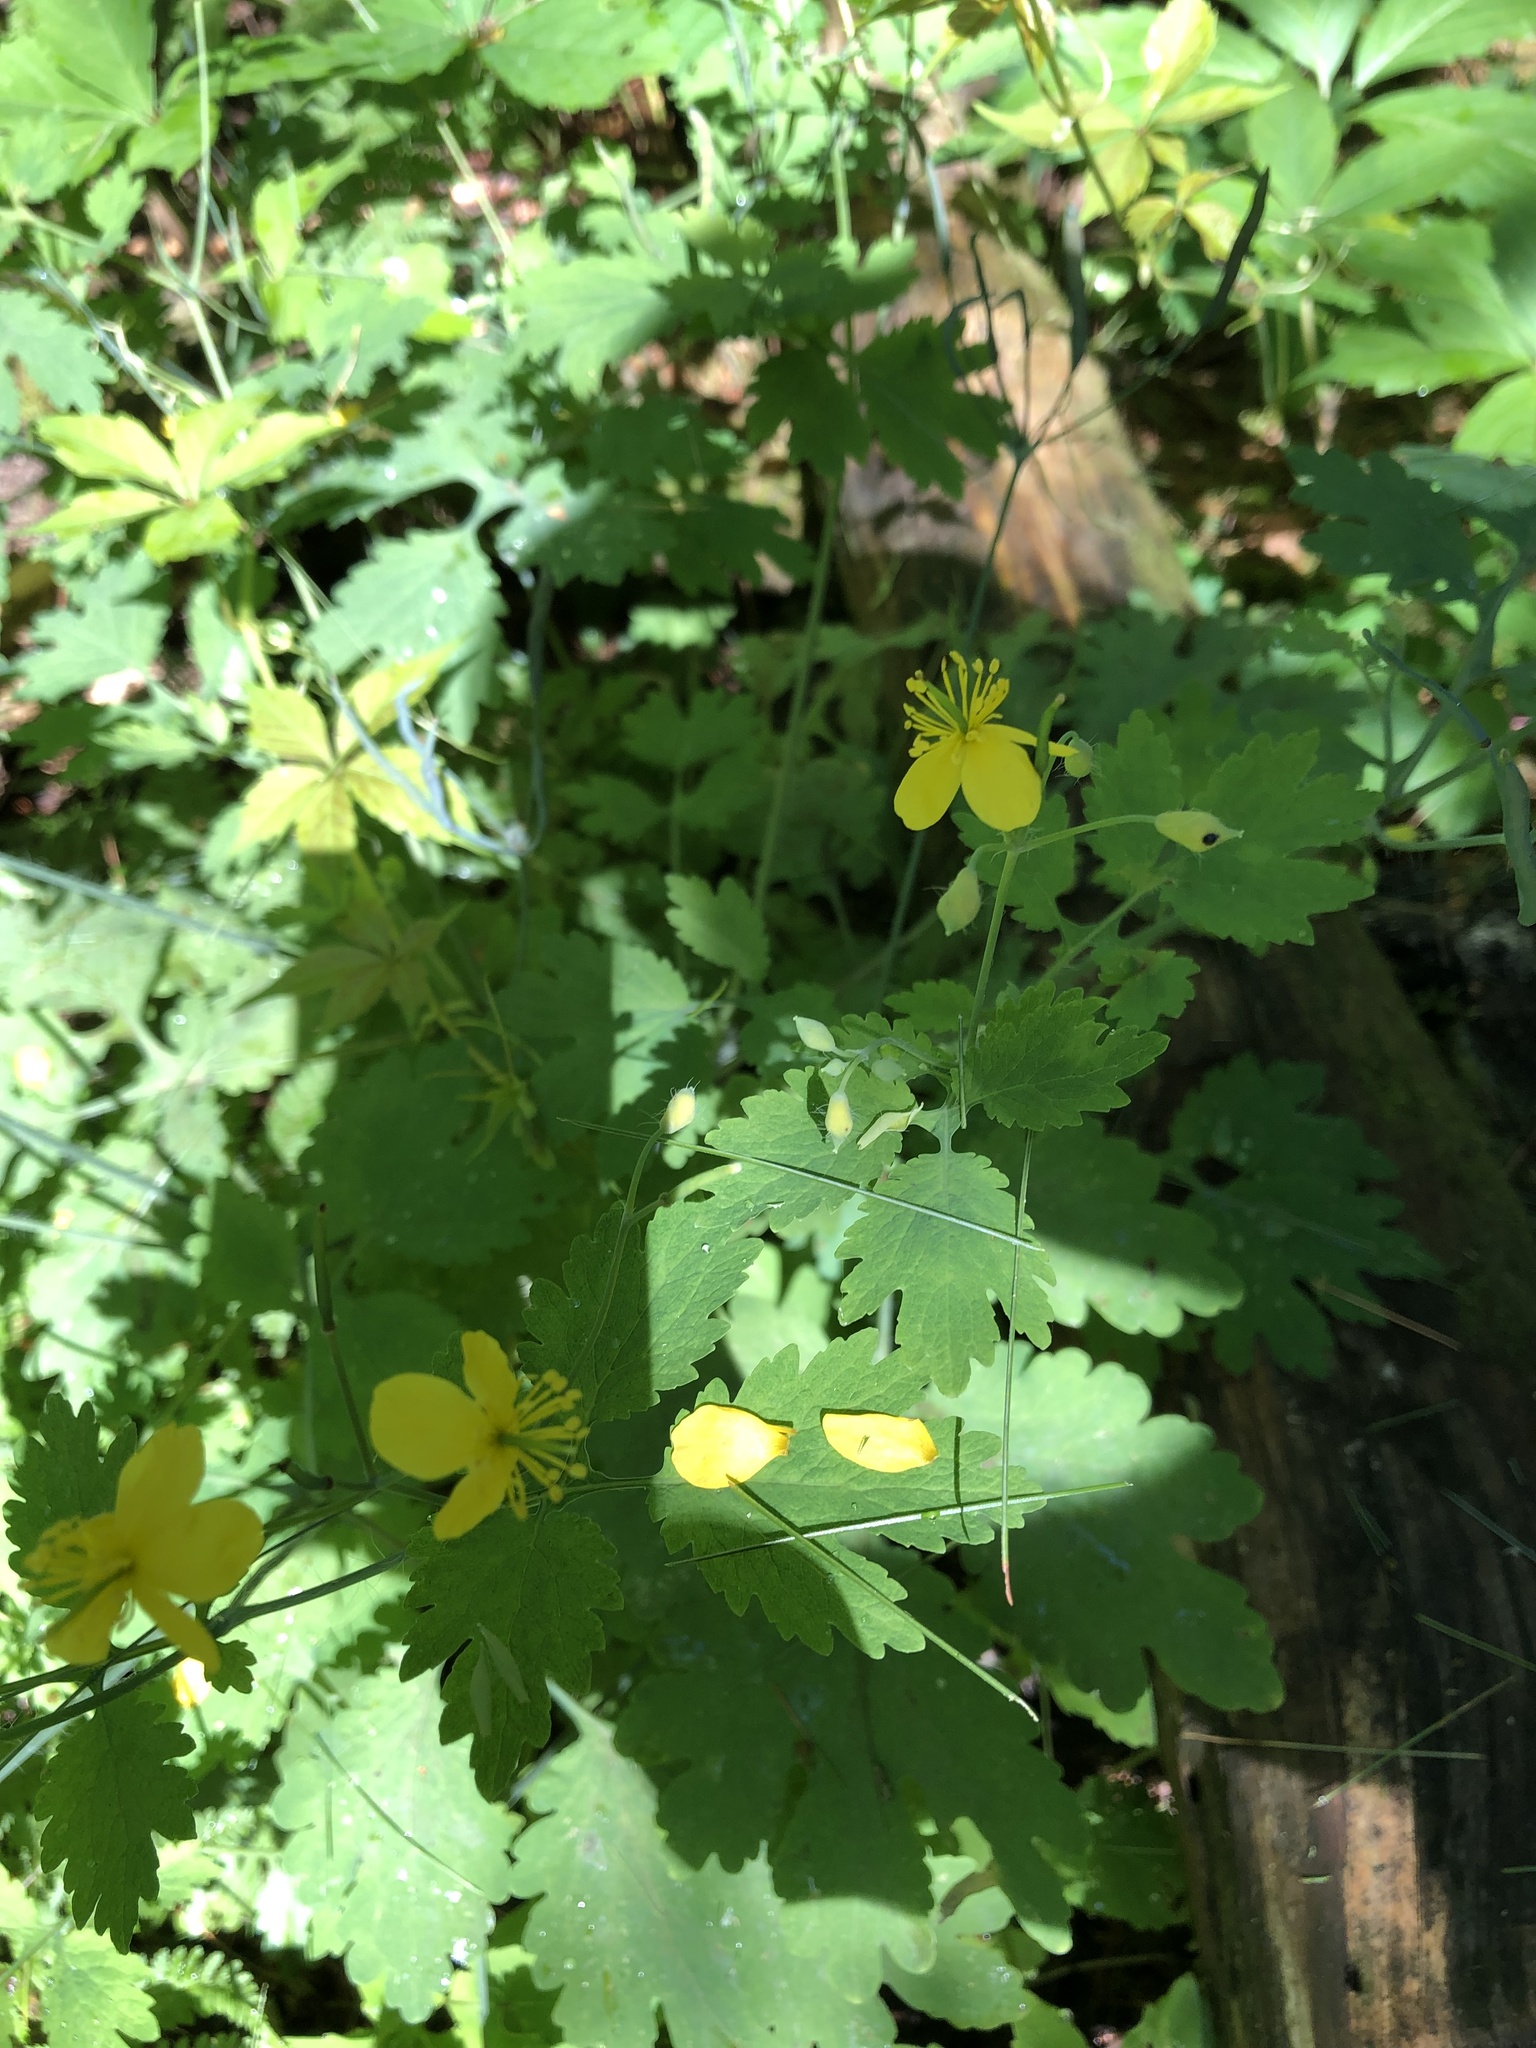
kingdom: Plantae
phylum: Tracheophyta
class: Magnoliopsida
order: Ranunculales
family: Papaveraceae
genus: Chelidonium
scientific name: Chelidonium majus
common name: Greater celandine
